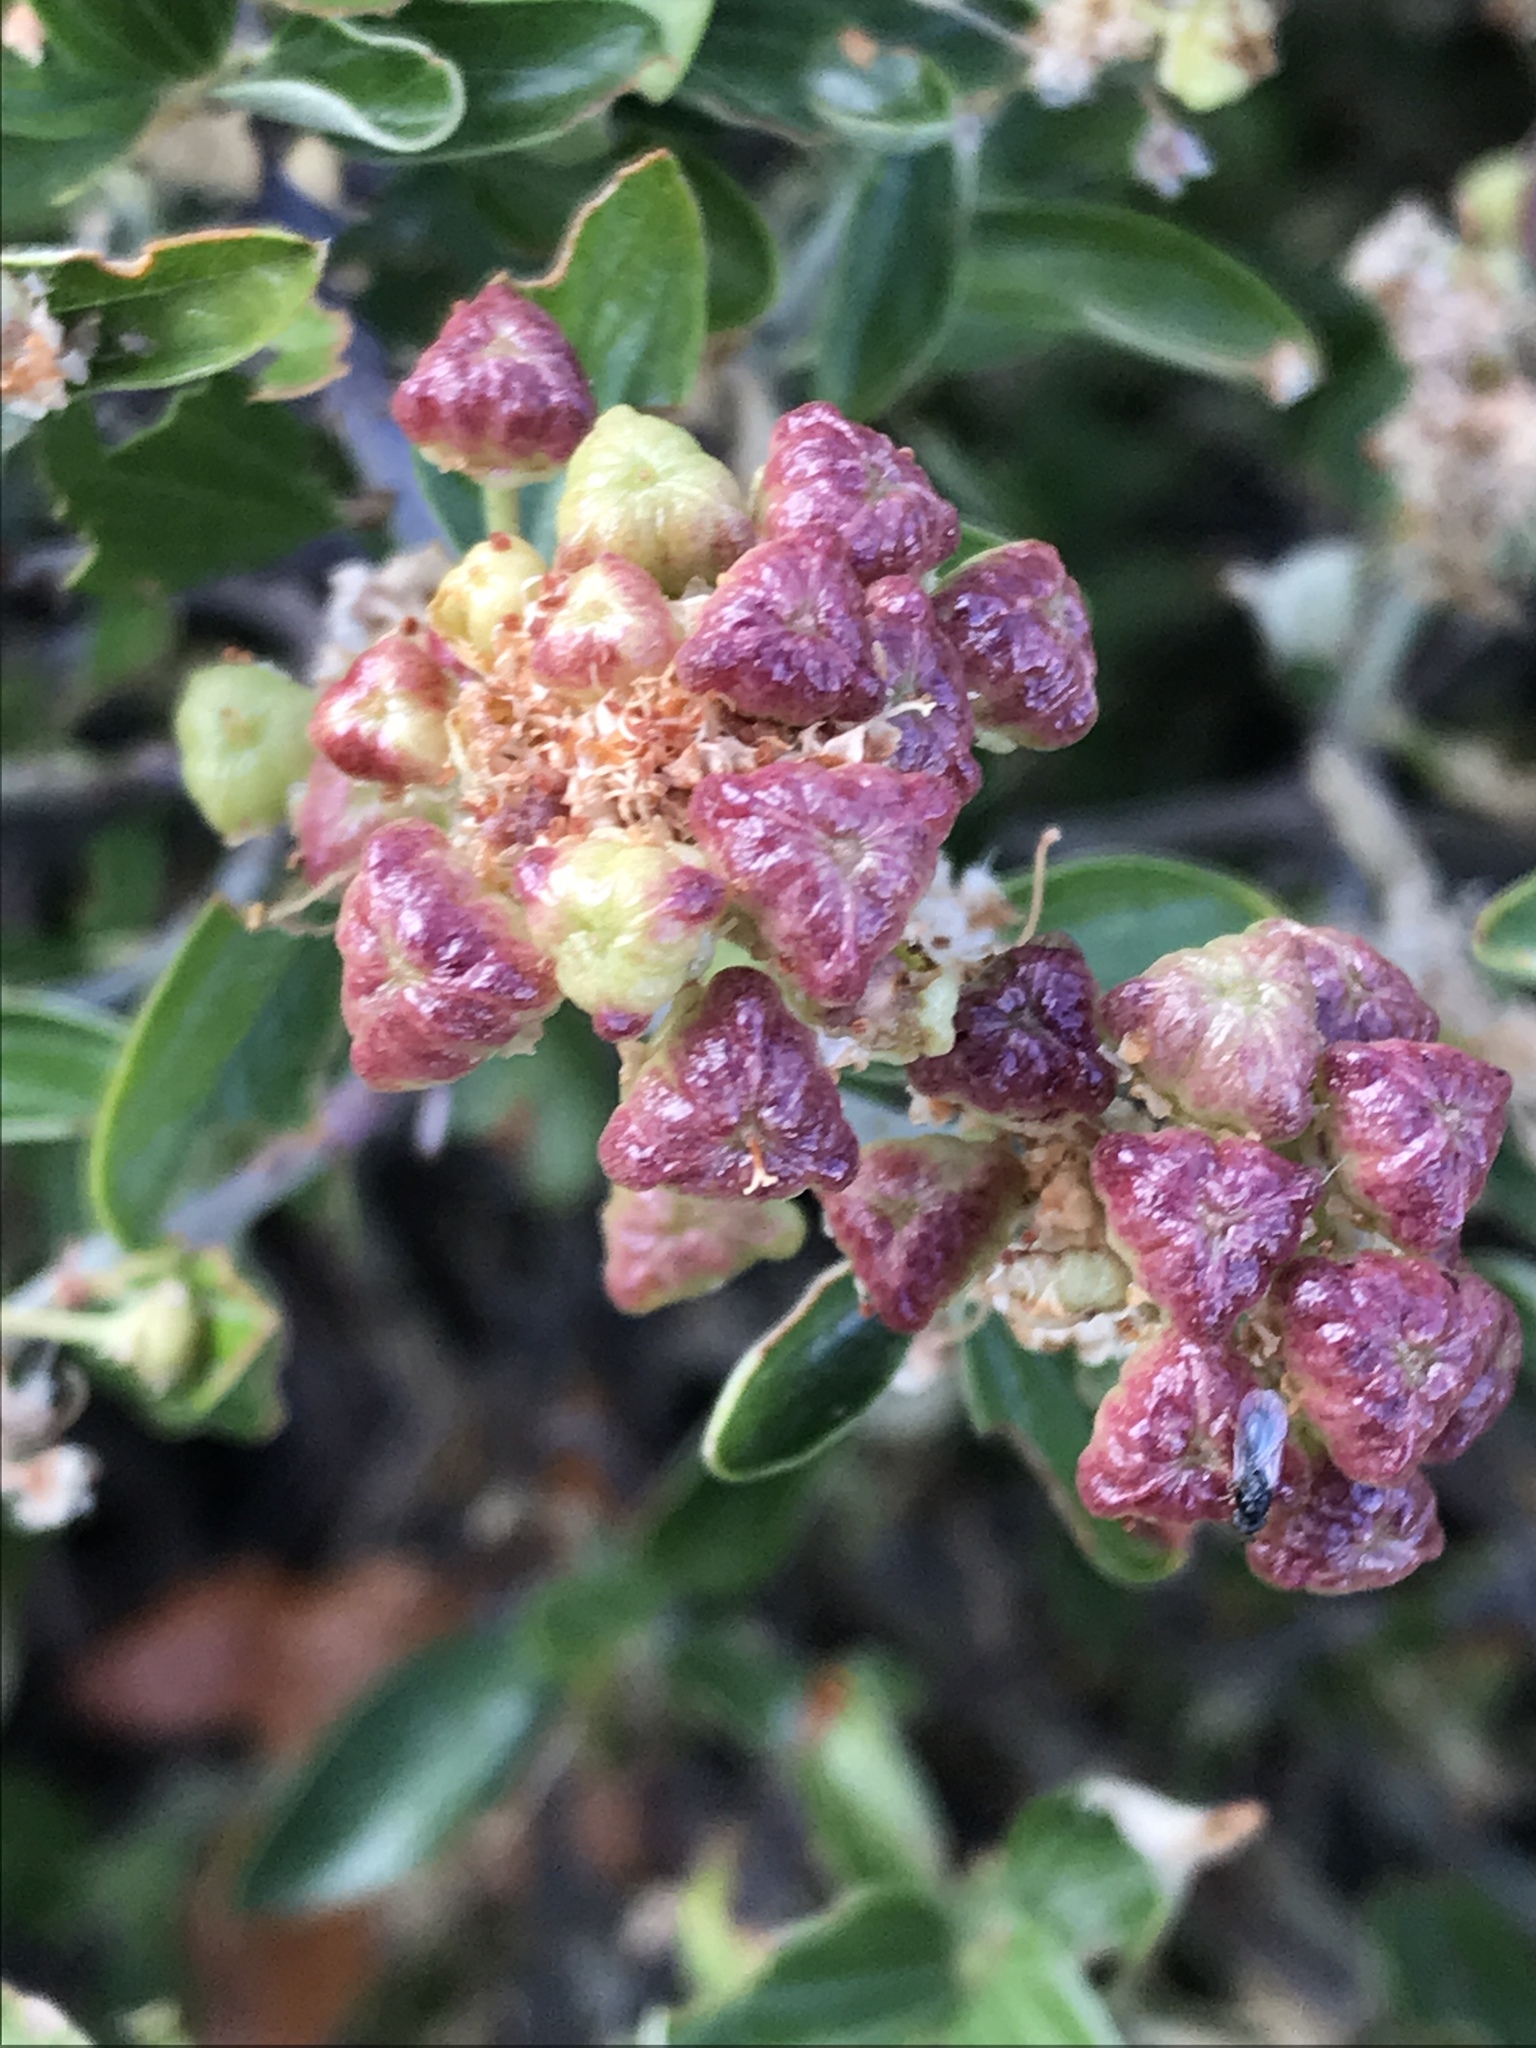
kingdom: Plantae
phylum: Tracheophyta
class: Magnoliopsida
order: Rosales
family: Rhamnaceae
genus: Ceanothus
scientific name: Ceanothus fendleri
